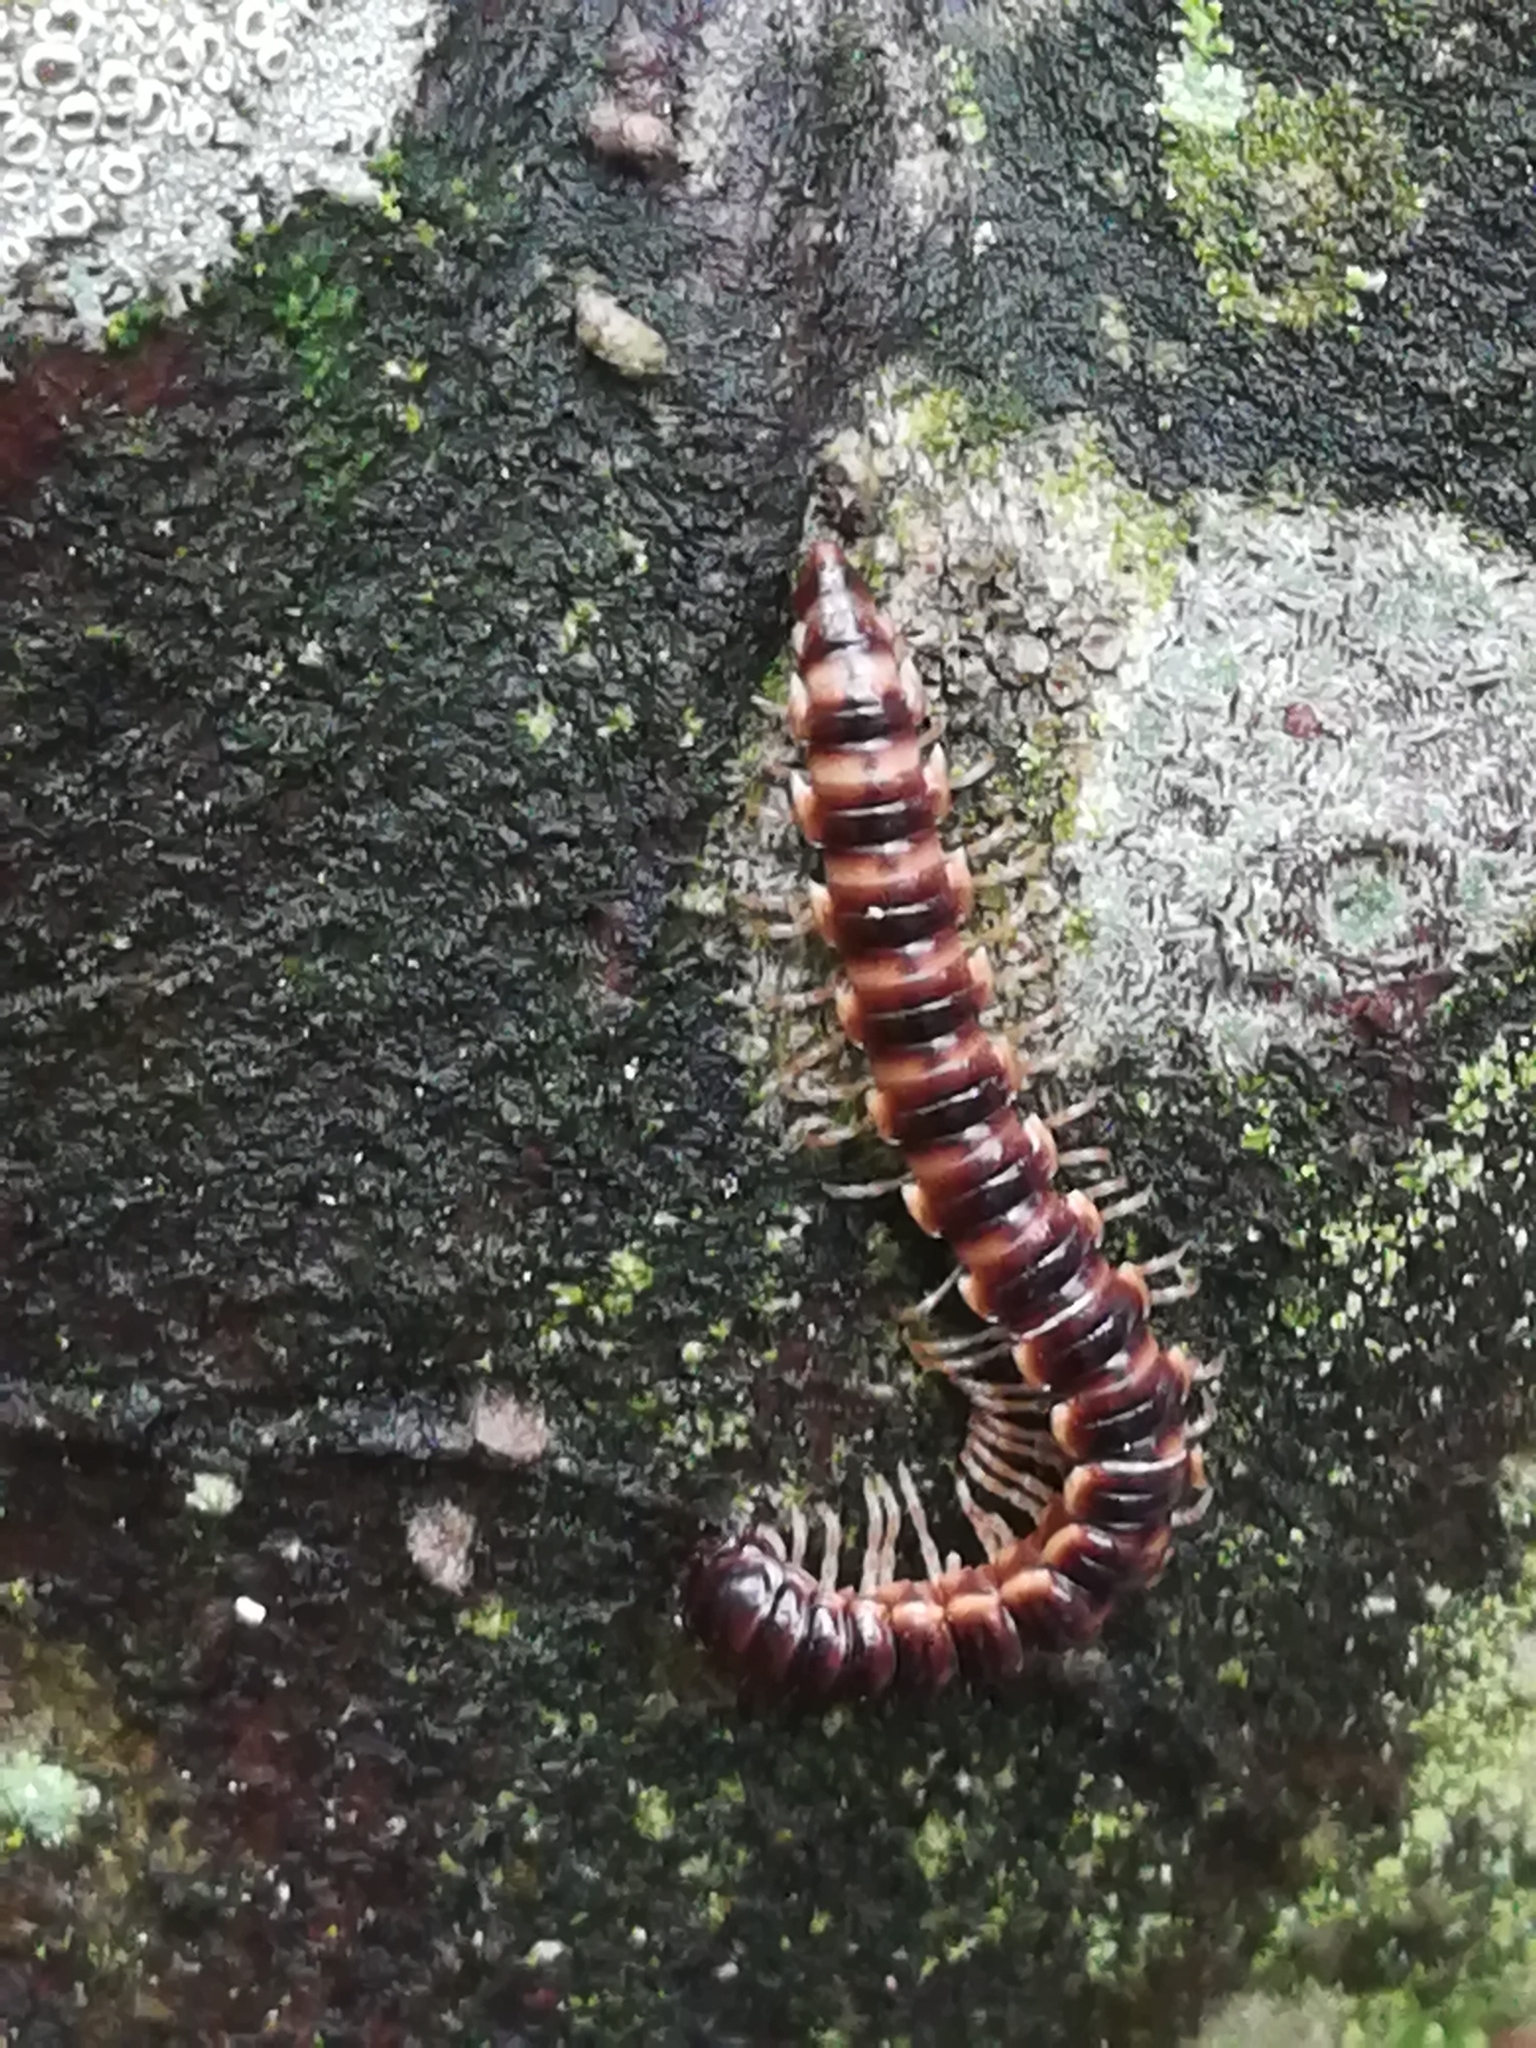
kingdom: Animalia
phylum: Arthropoda
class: Diplopoda
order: Polydesmida
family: Paradoxosomatidae
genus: Oxidus
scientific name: Oxidus gracilis
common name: Greenhouse millipede
